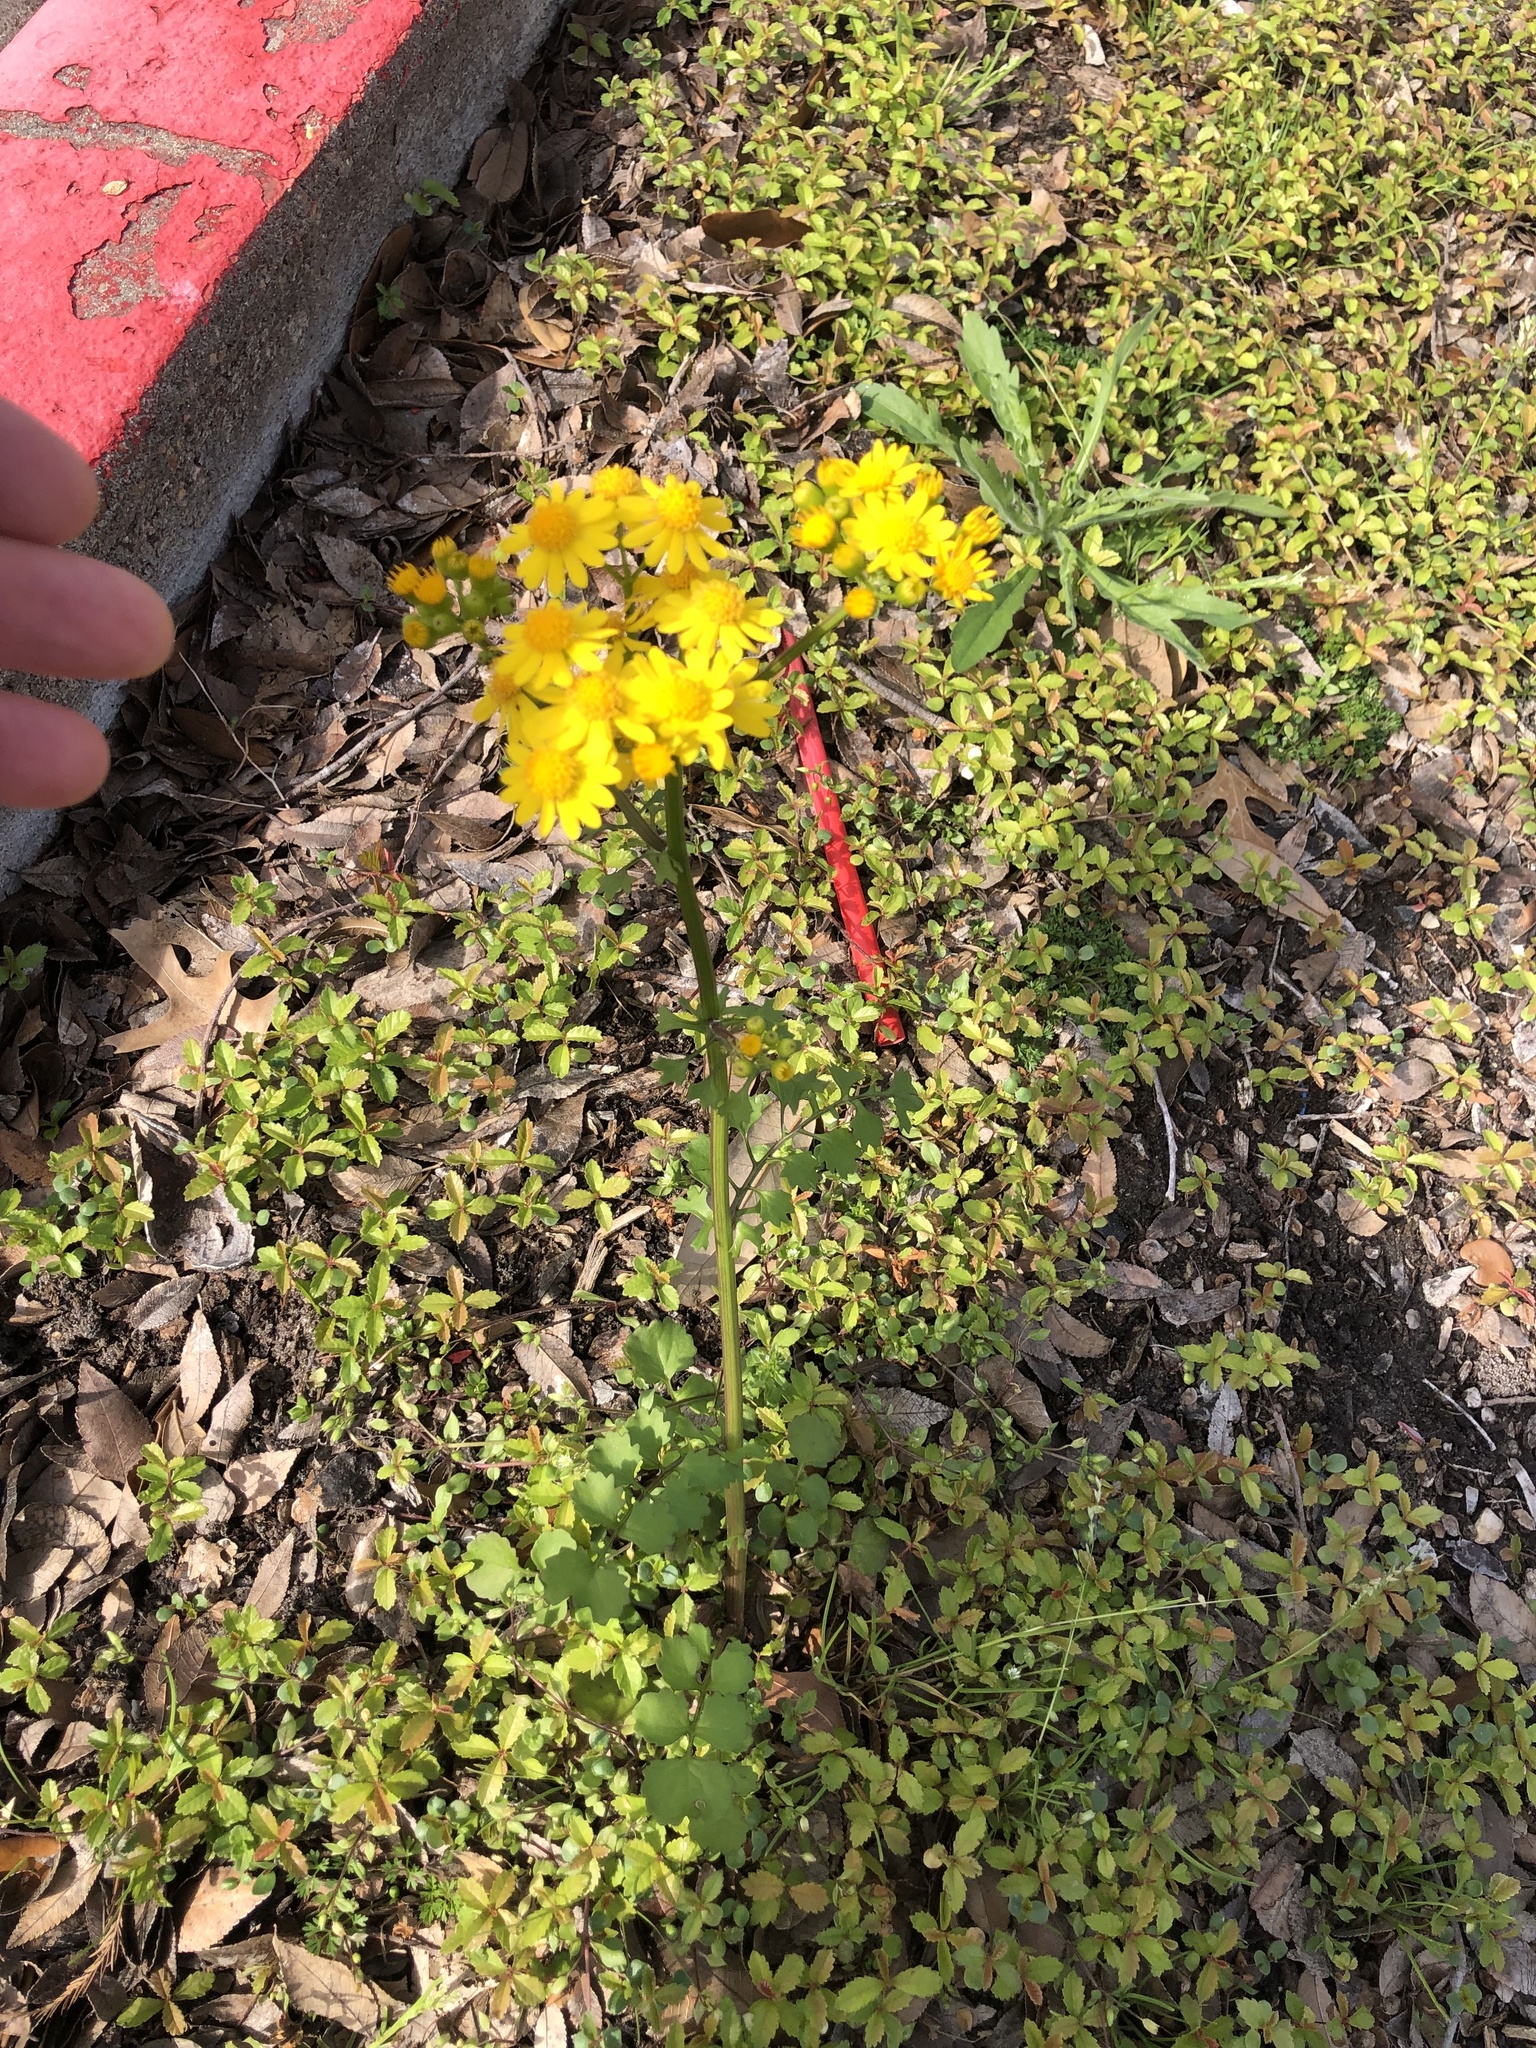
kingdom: Plantae
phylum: Tracheophyta
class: Magnoliopsida
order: Asterales
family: Asteraceae
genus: Packera
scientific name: Packera glabella
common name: Butterweed
